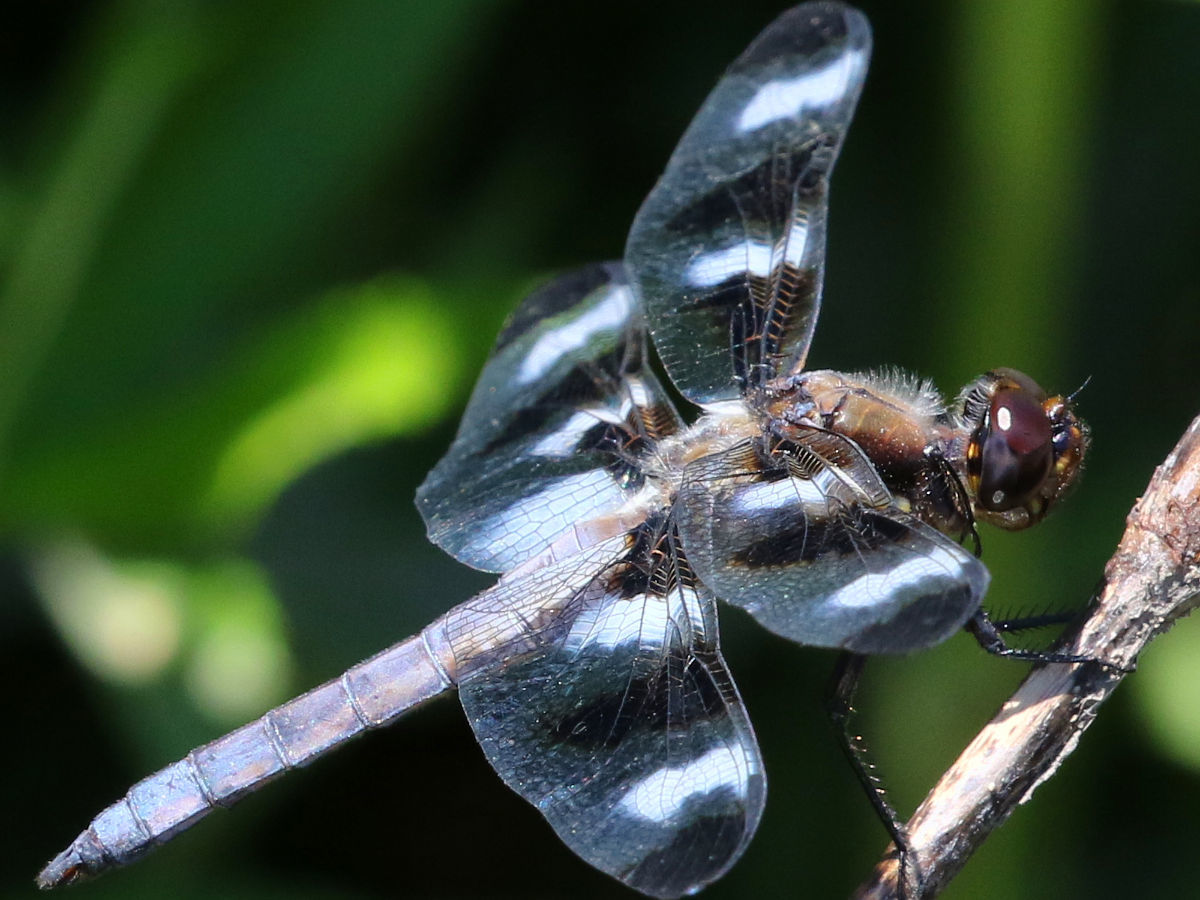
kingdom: Animalia
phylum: Arthropoda
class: Insecta
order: Odonata
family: Libellulidae
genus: Libellula
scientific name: Libellula pulchella
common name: Twelve-spotted skimmer
